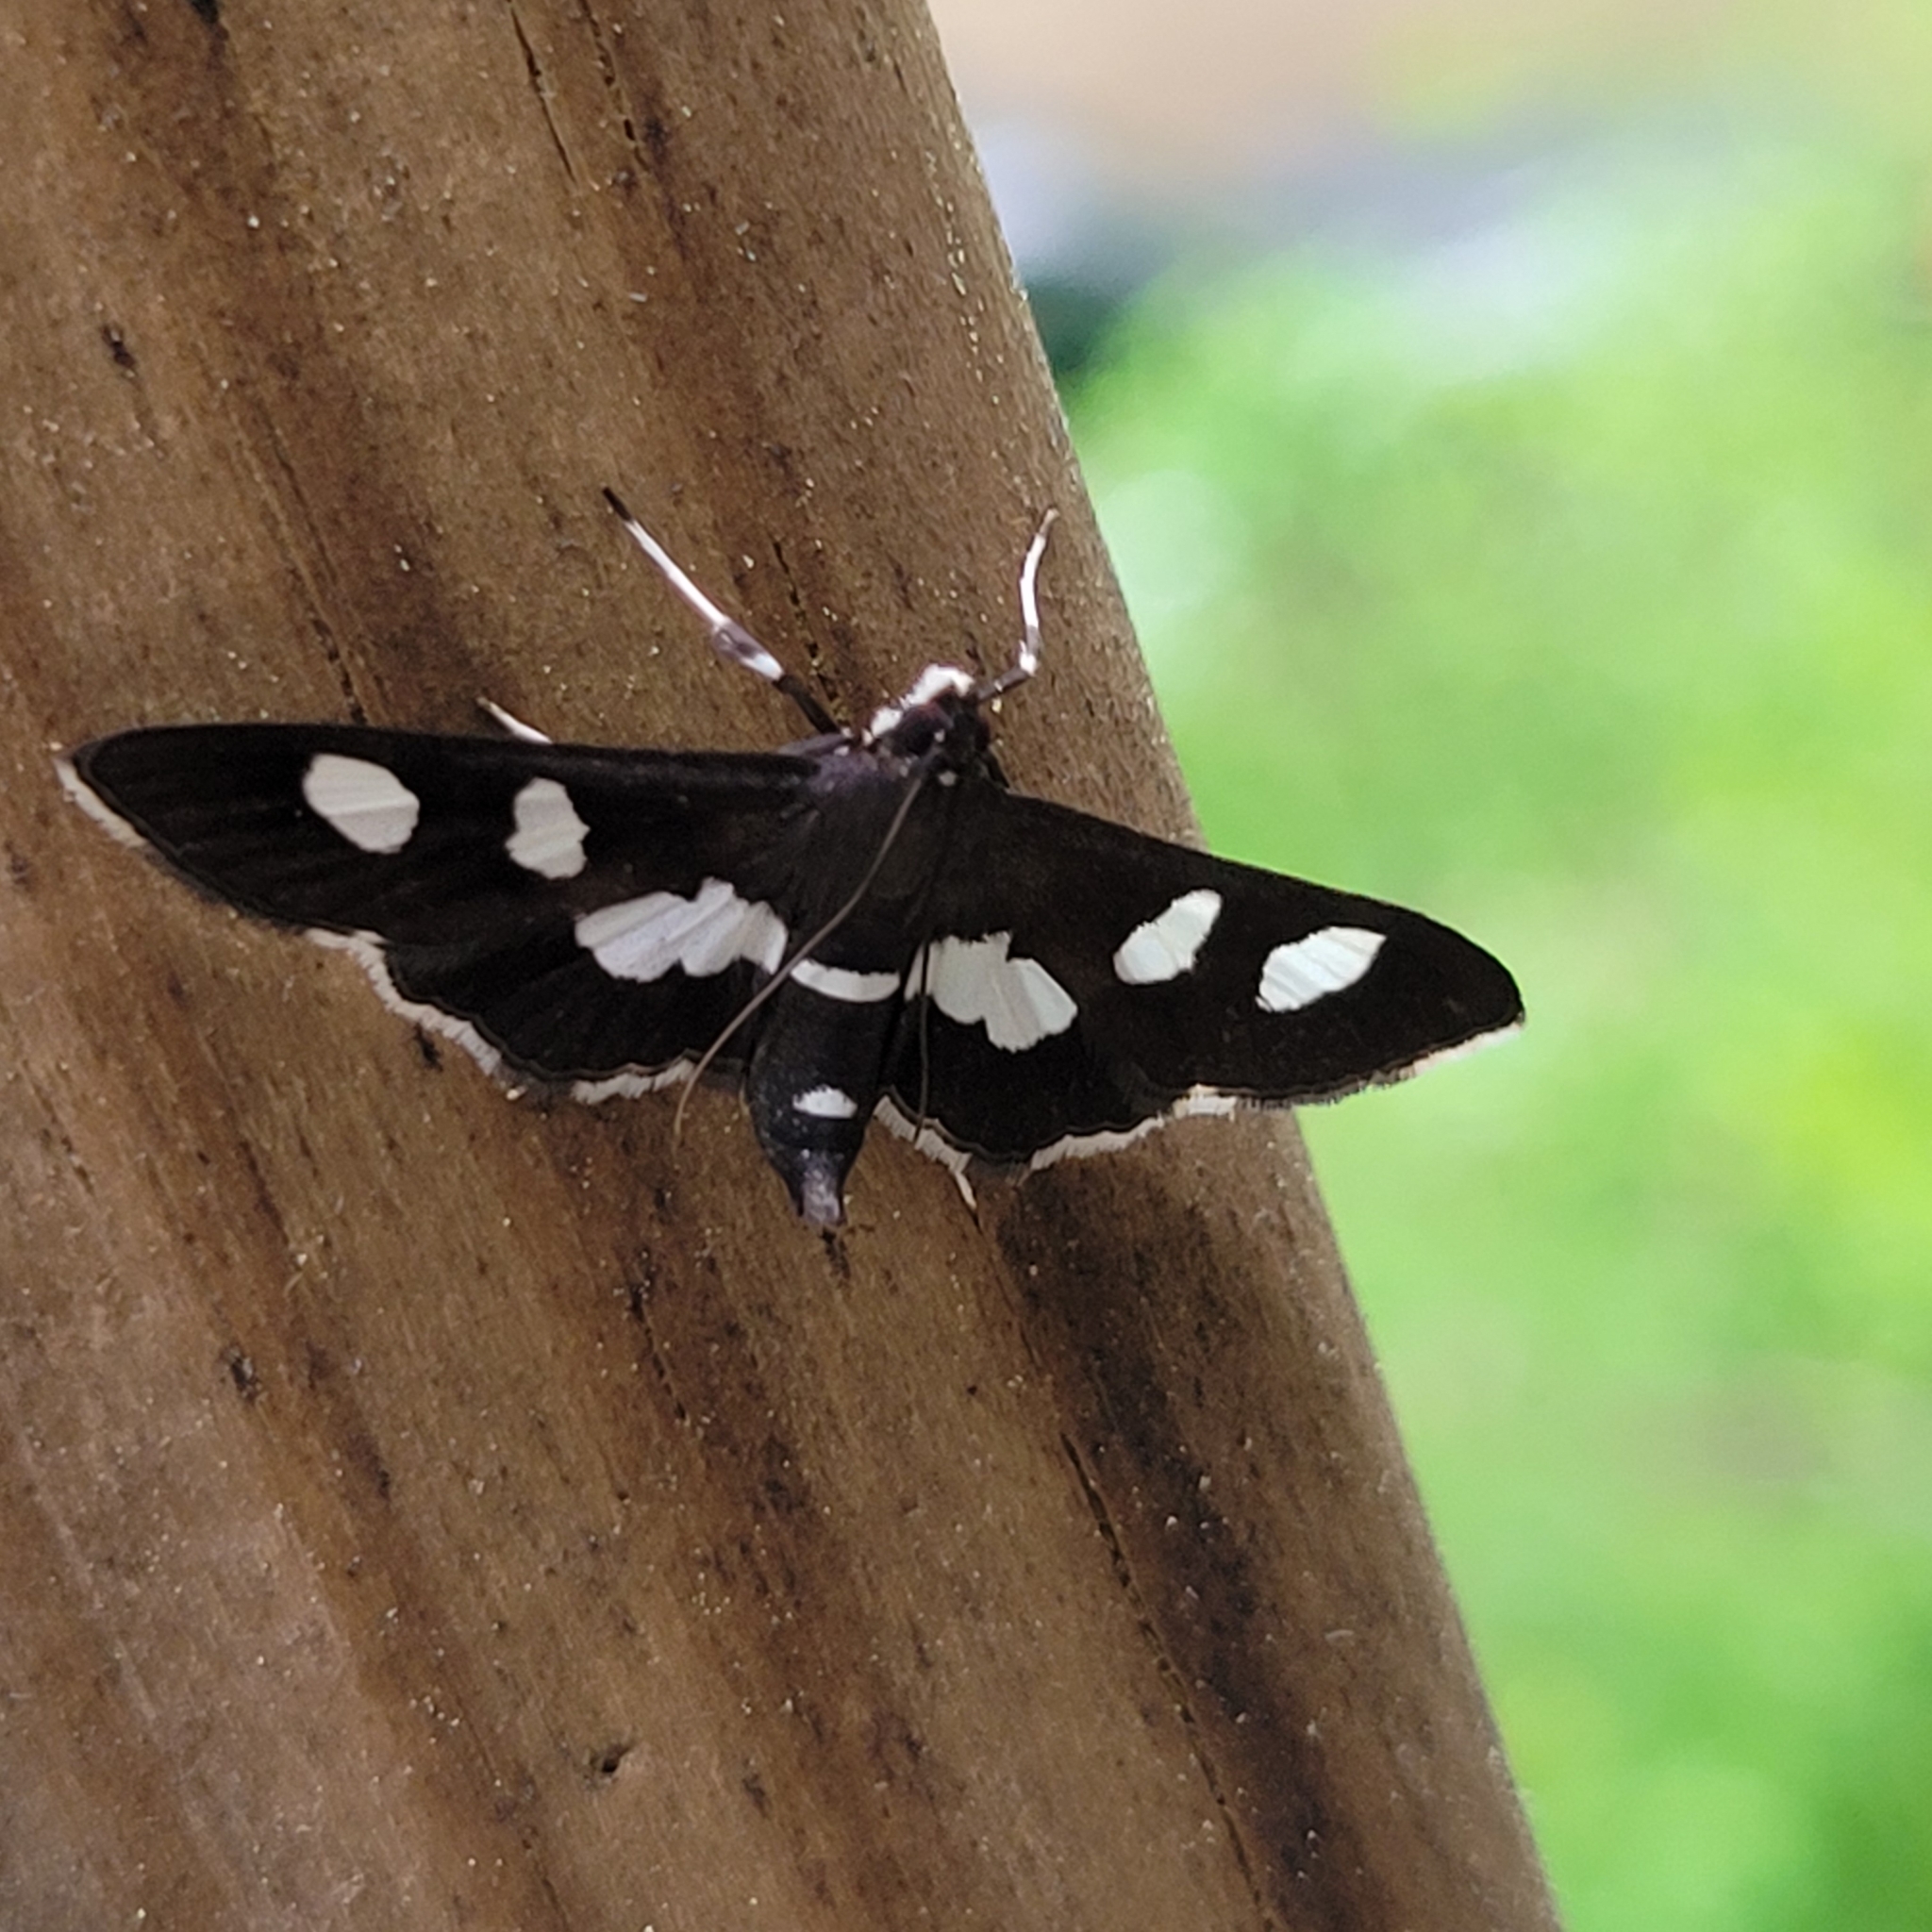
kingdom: Animalia
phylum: Arthropoda
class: Insecta
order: Lepidoptera
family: Crambidae
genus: Desmia
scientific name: Desmia
